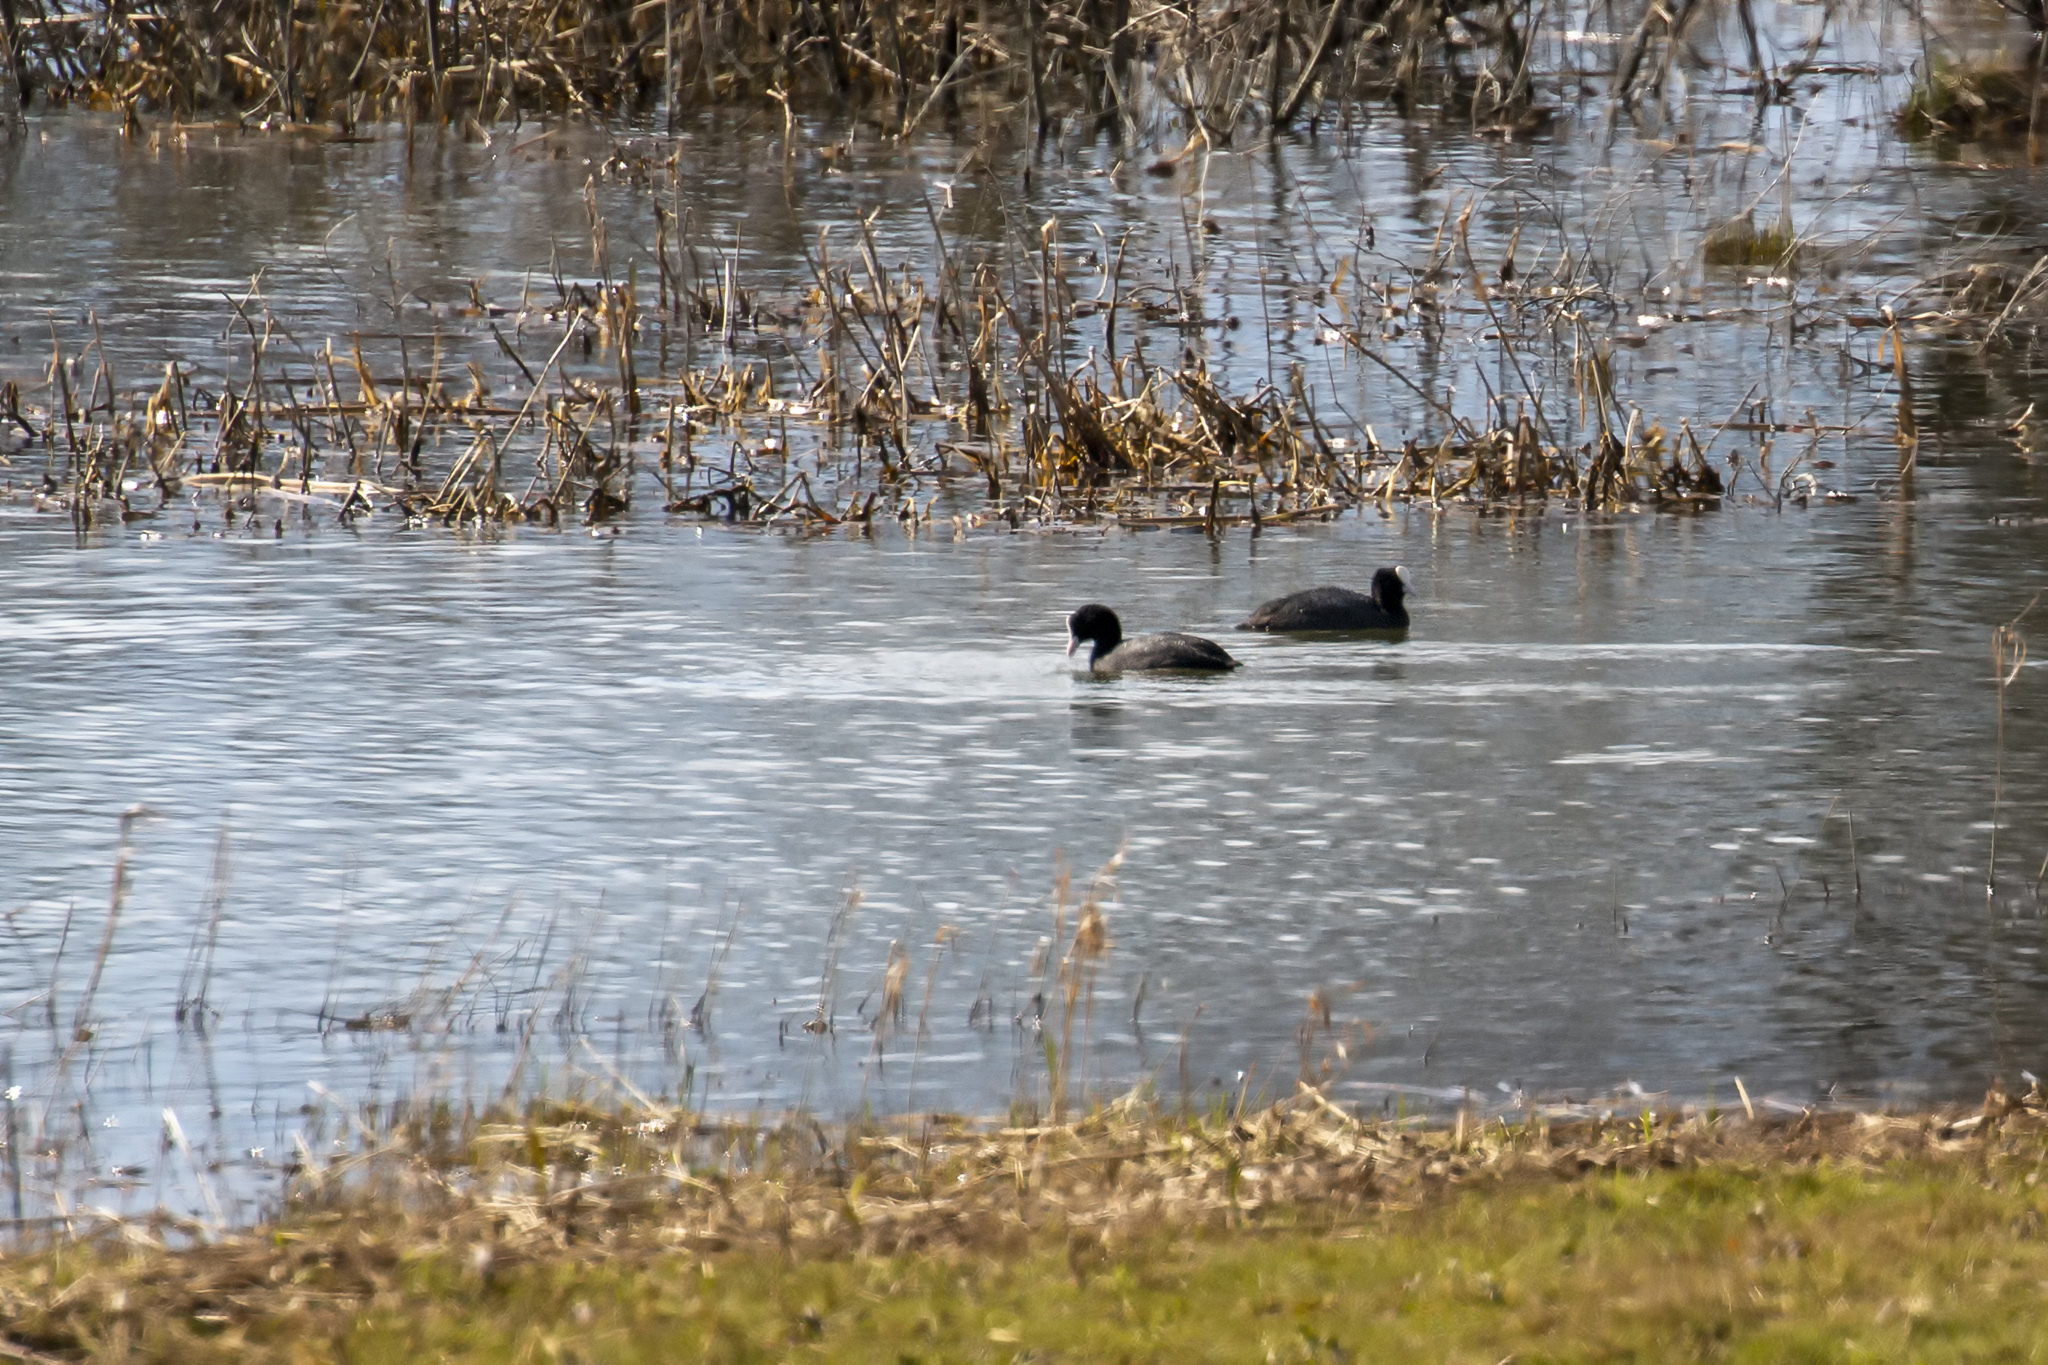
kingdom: Animalia
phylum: Chordata
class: Aves
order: Gruiformes
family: Rallidae
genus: Fulica
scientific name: Fulica atra
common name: Eurasian coot
